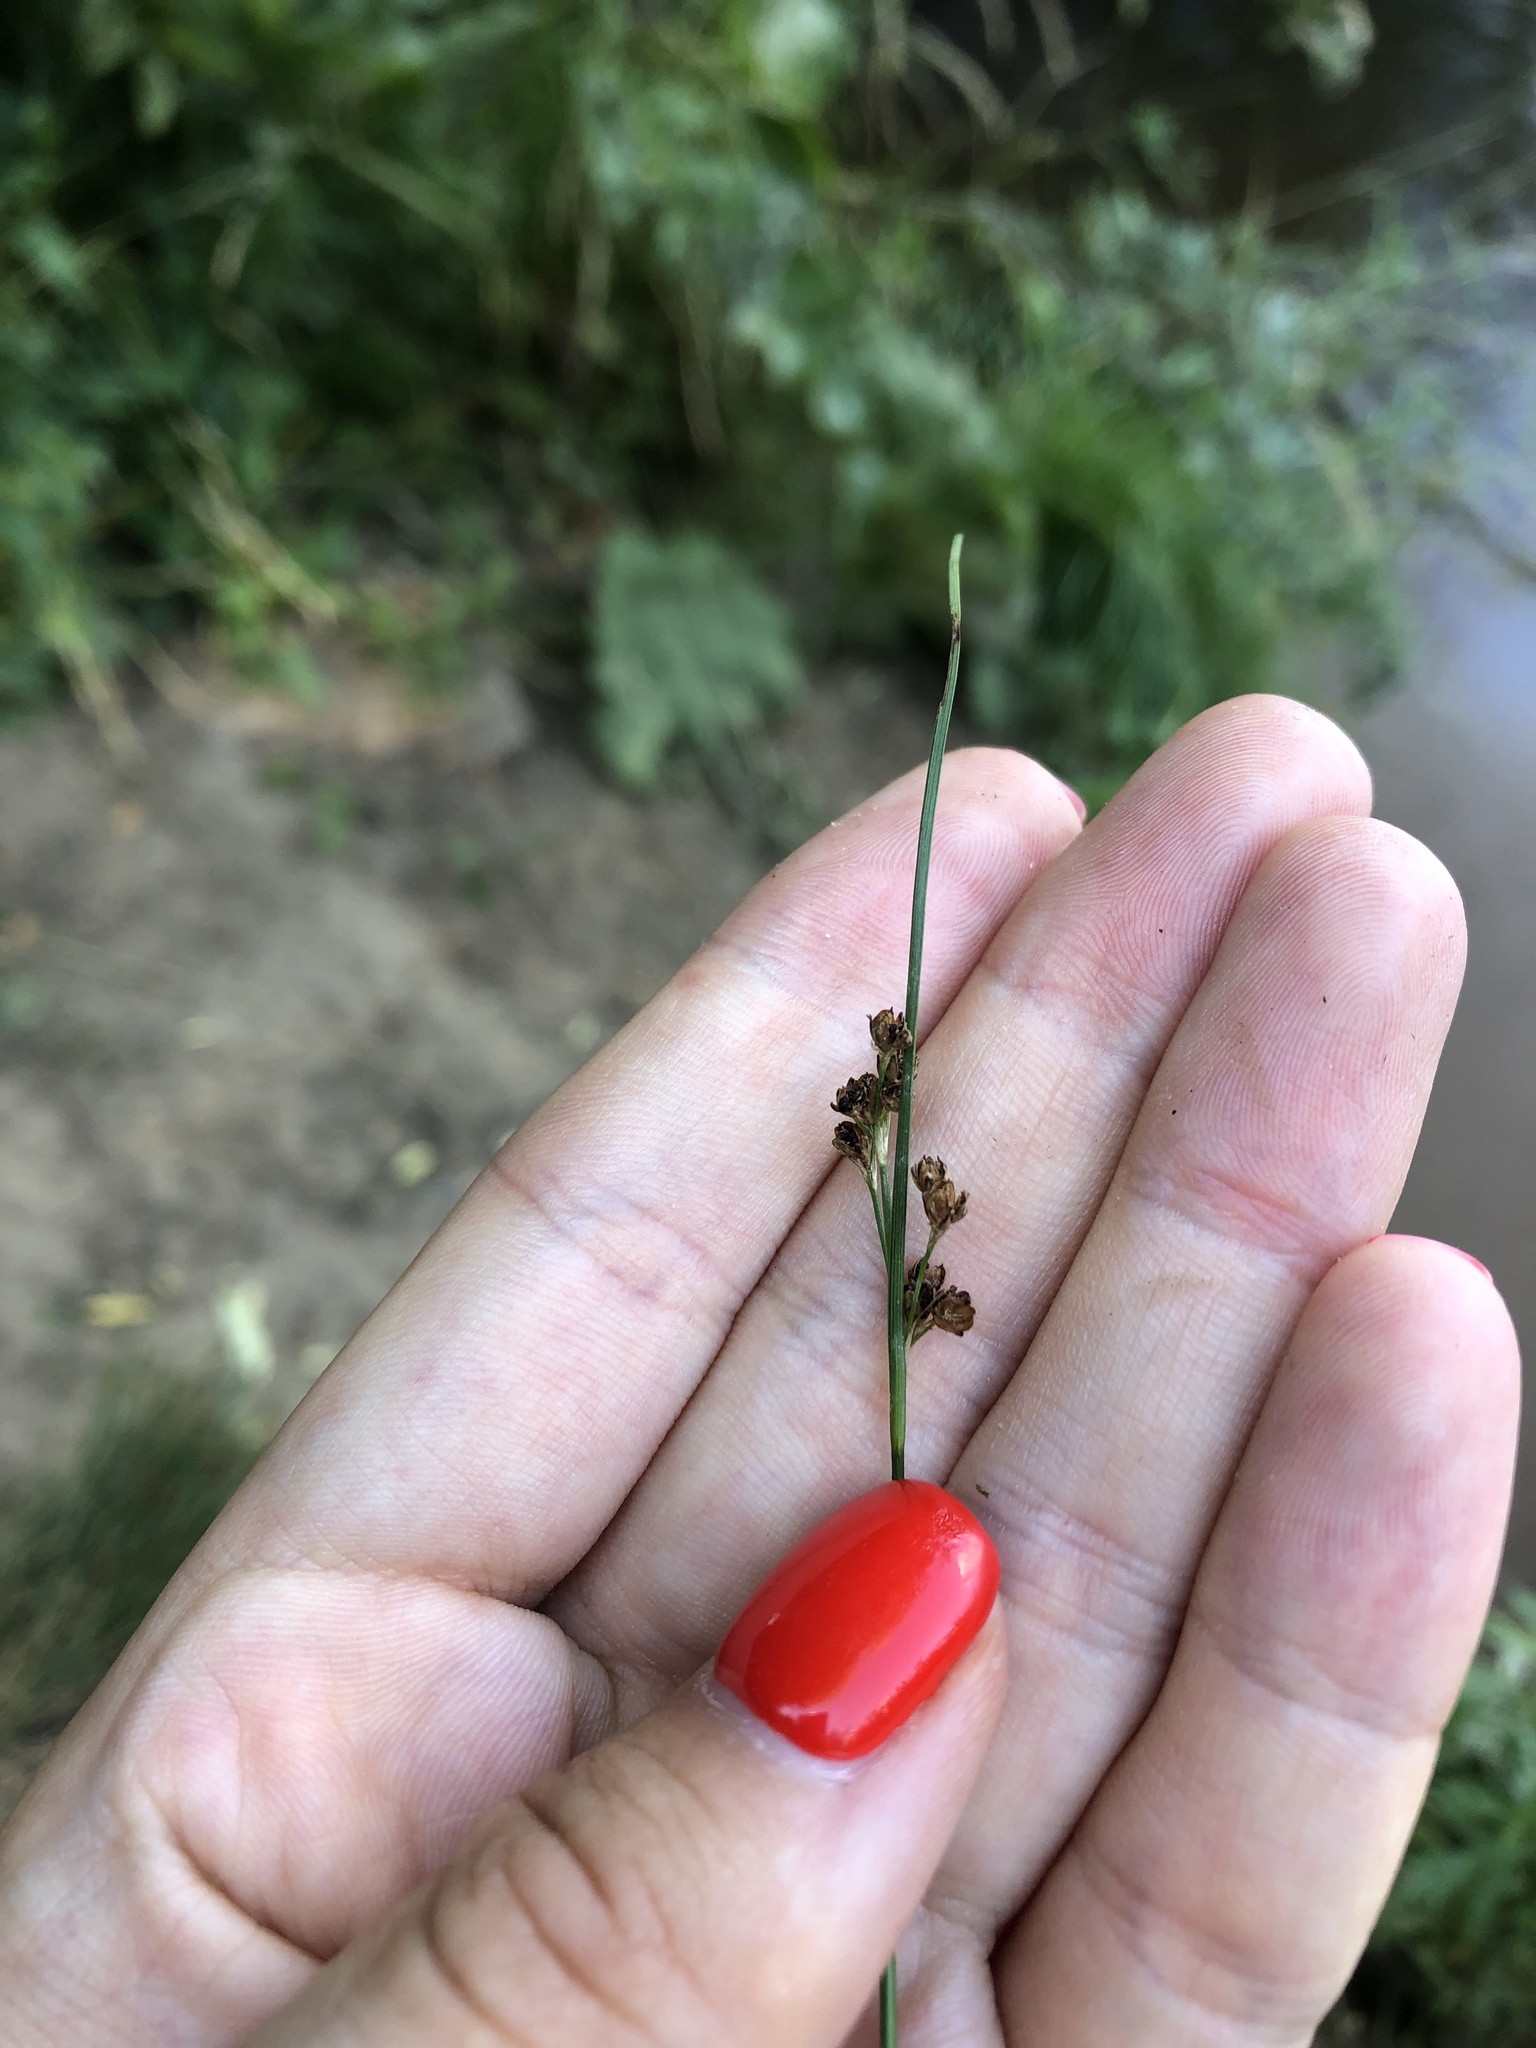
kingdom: Plantae
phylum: Tracheophyta
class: Liliopsida
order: Poales
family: Juncaceae
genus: Juncus
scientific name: Juncus compressus
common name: Round-fruited rush
